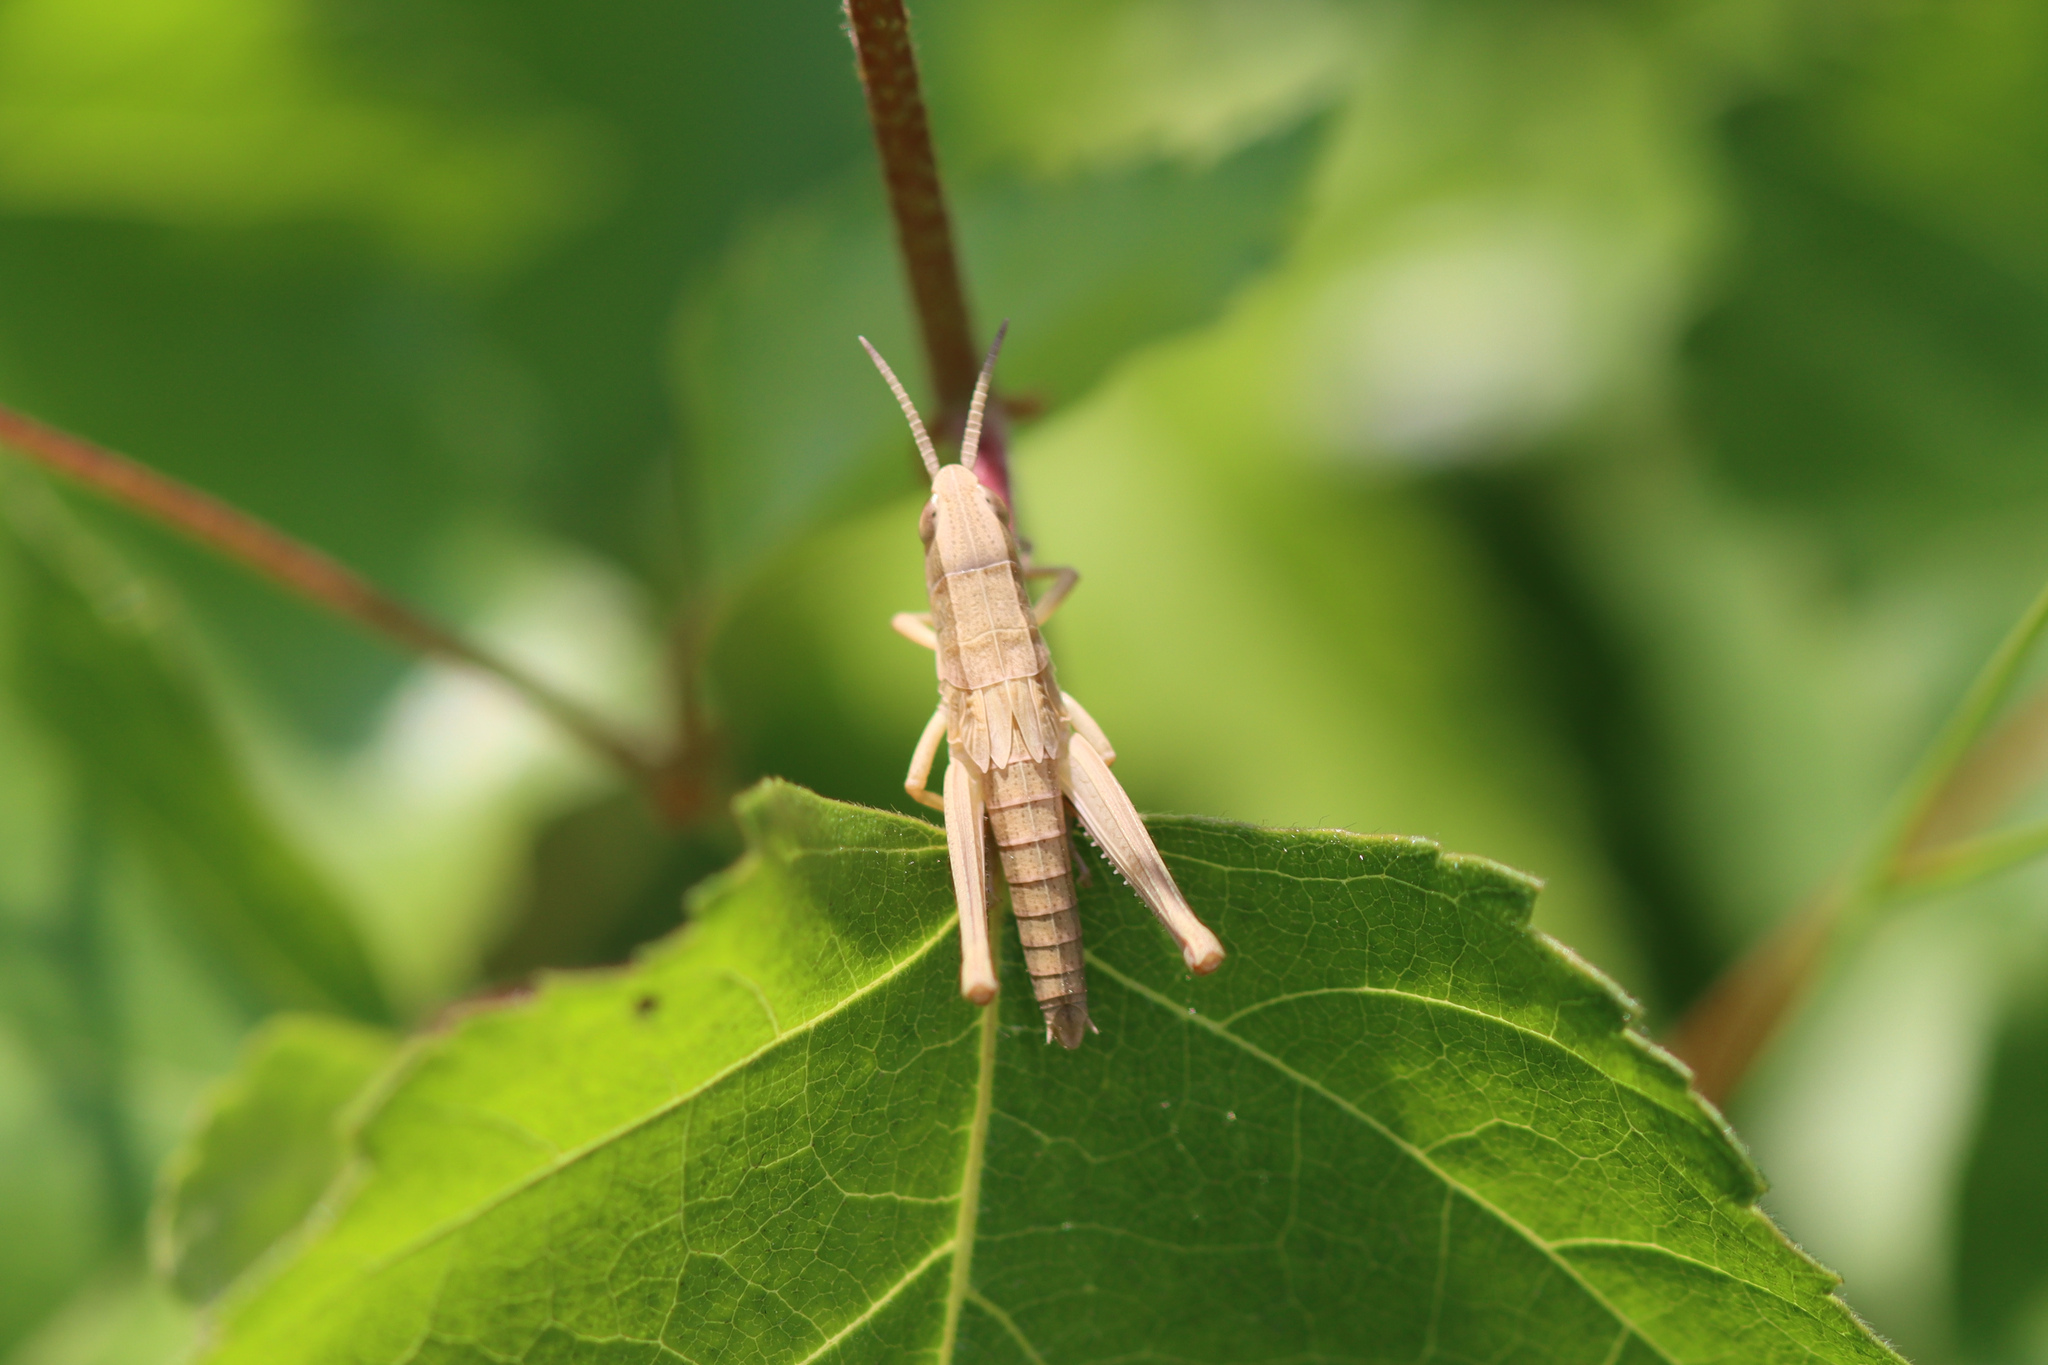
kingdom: Animalia
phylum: Arthropoda
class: Insecta
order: Orthoptera
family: Acrididae
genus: Chrysochraon
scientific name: Chrysochraon dispar
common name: Large gold grasshopper
